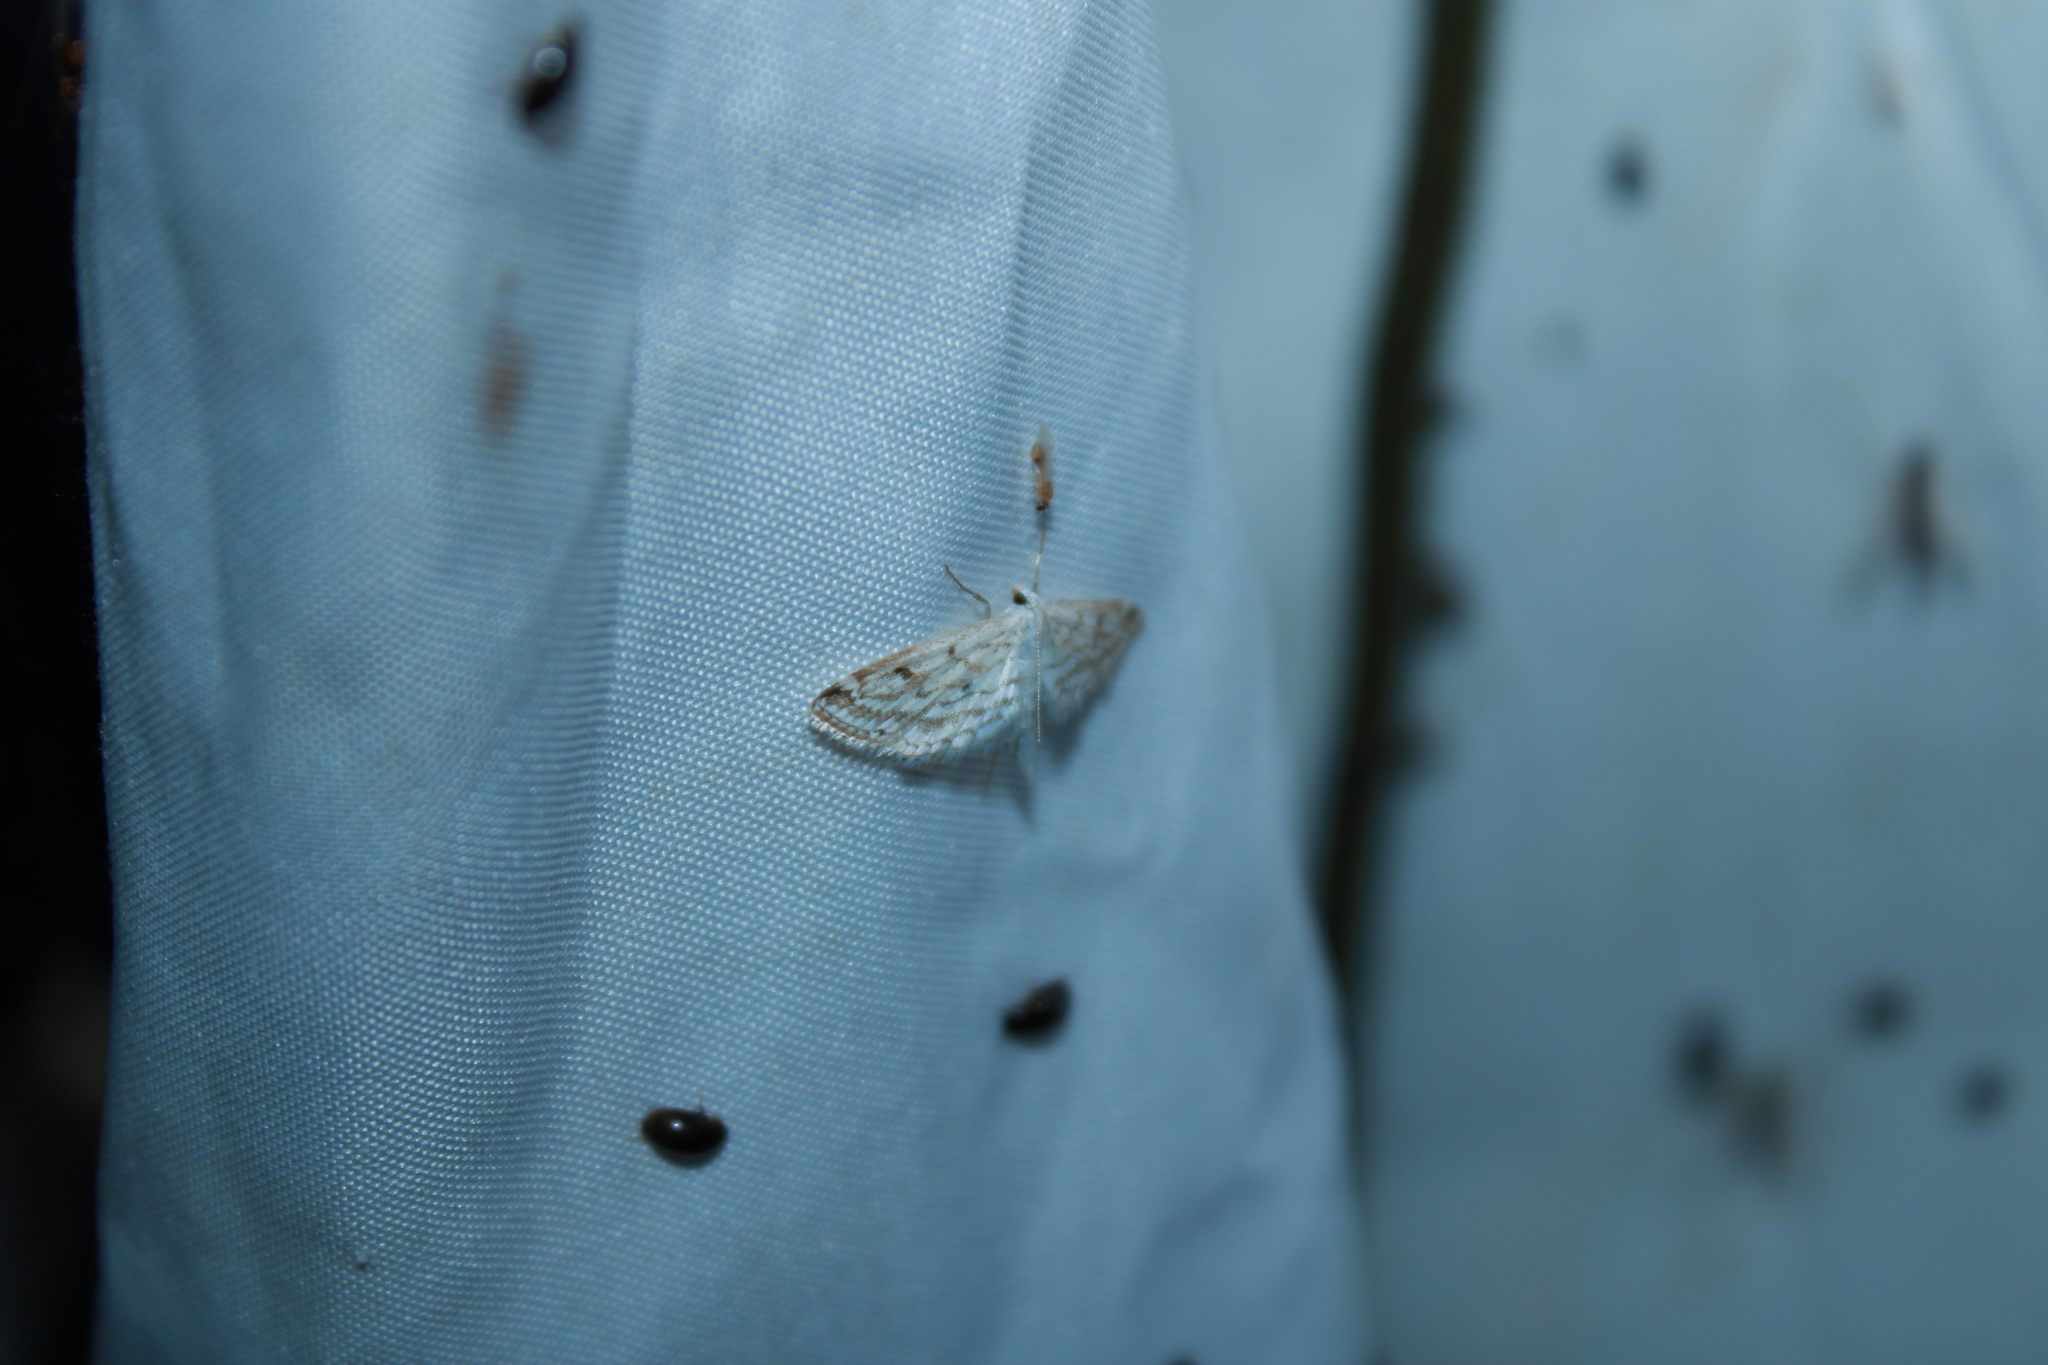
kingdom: Animalia
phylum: Arthropoda
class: Insecta
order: Lepidoptera
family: Crambidae
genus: Parapoynx
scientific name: Parapoynx allionealis
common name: Bladderwort casemaker
